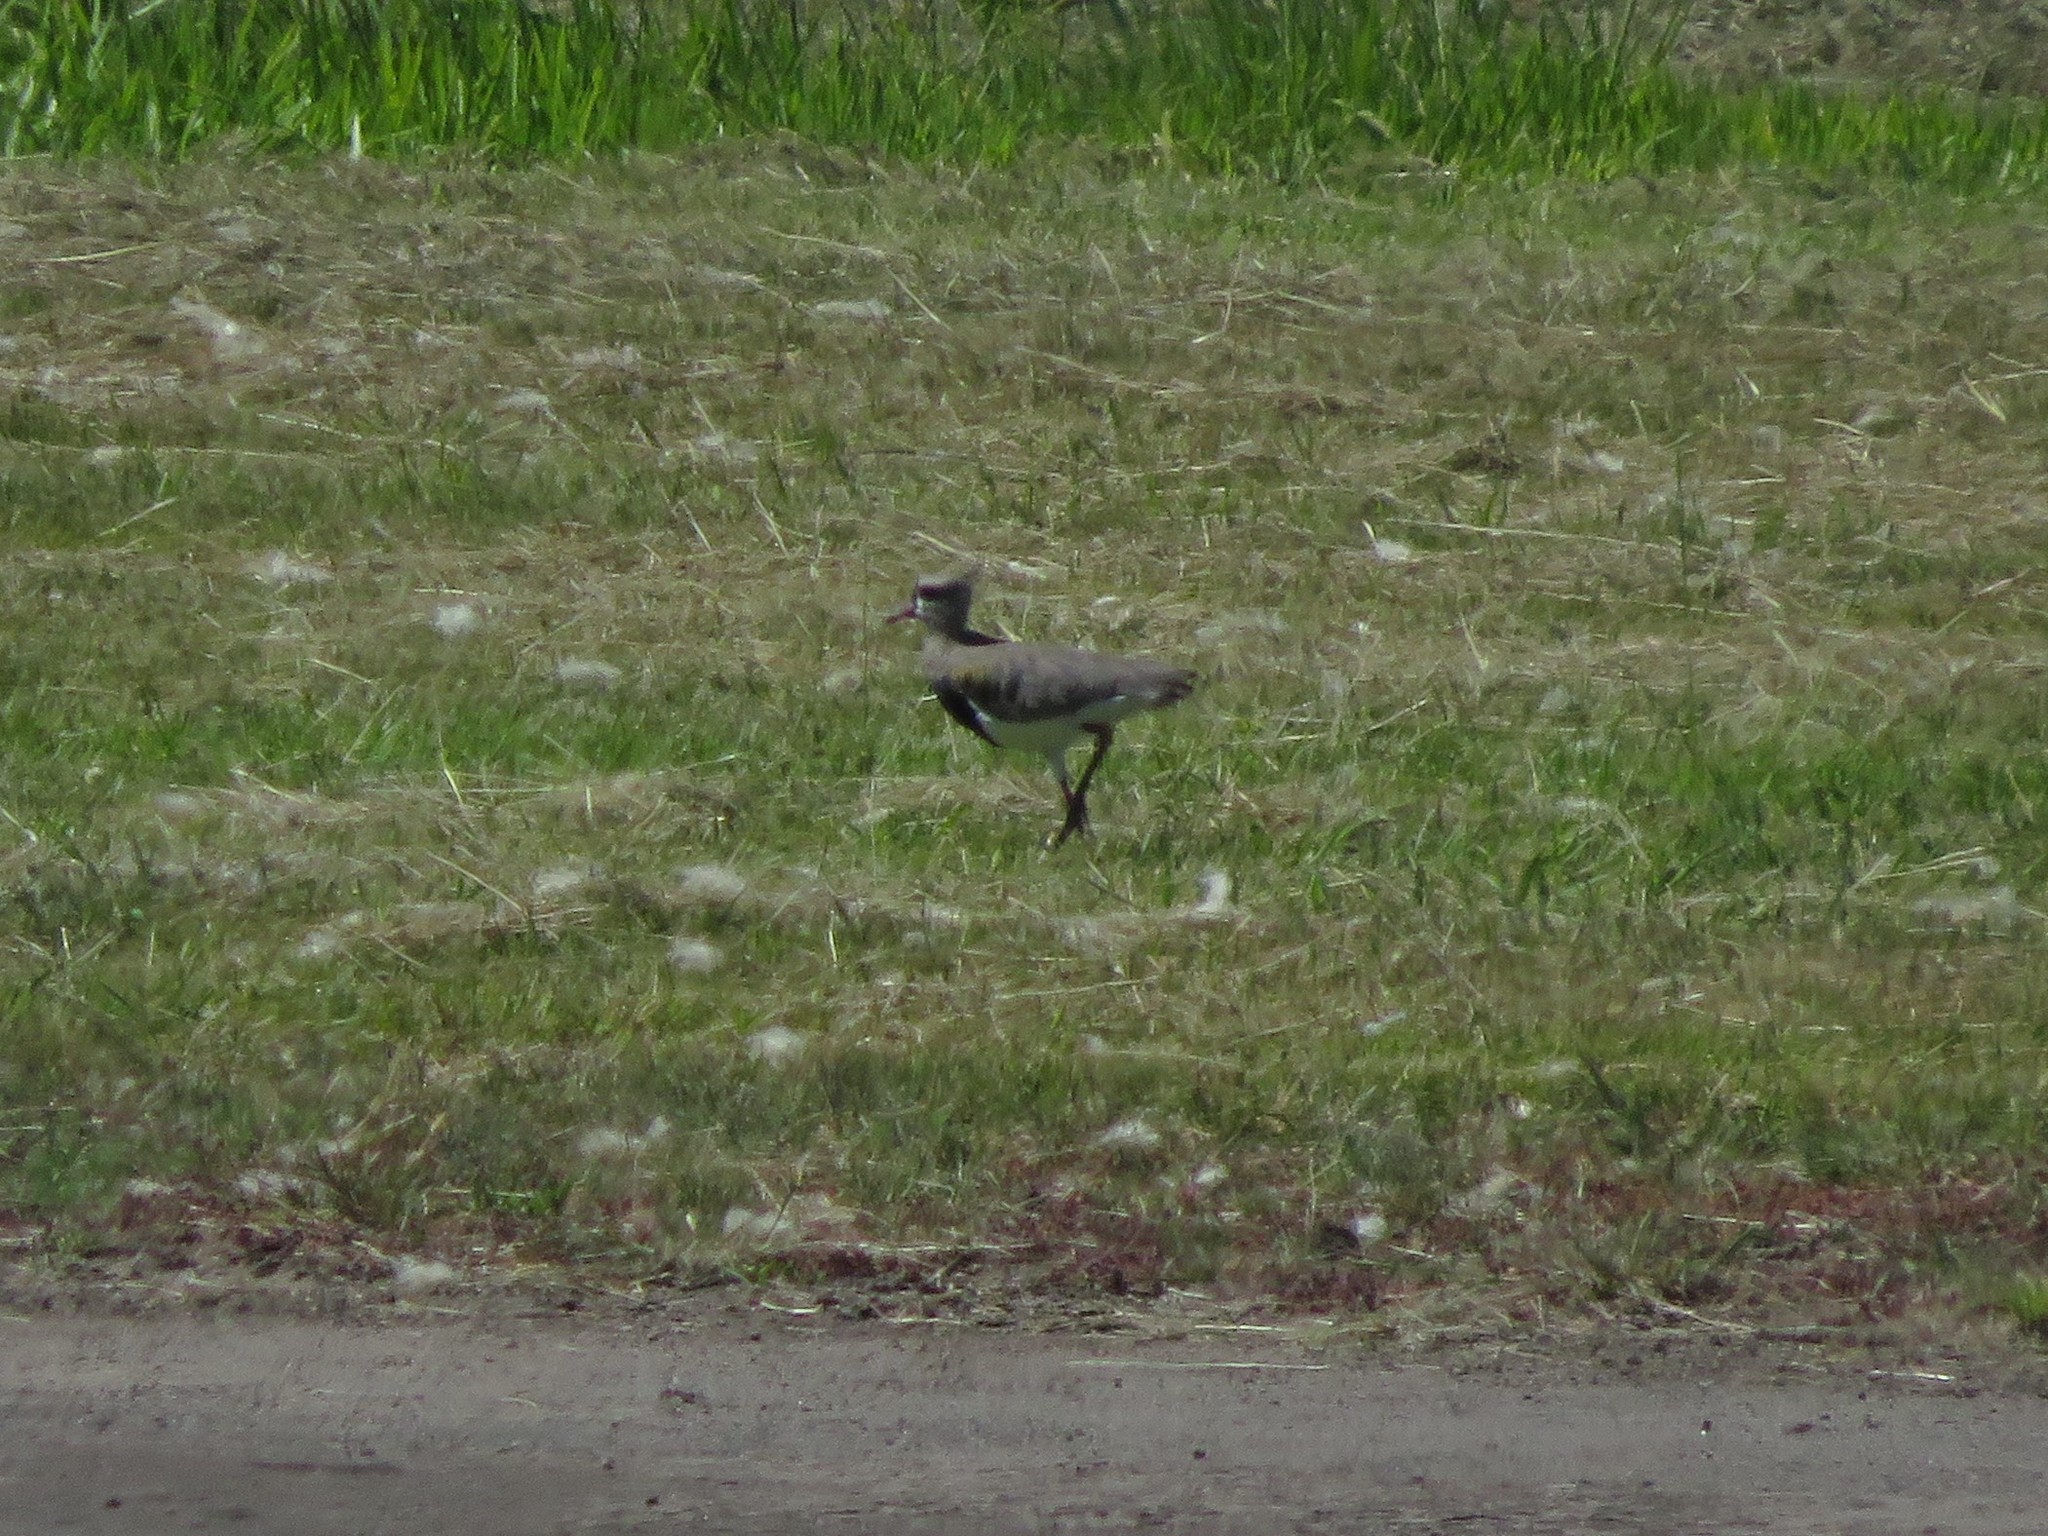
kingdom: Animalia
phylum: Chordata
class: Aves
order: Charadriiformes
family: Charadriidae
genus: Vanellus
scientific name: Vanellus chilensis
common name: Southern lapwing
